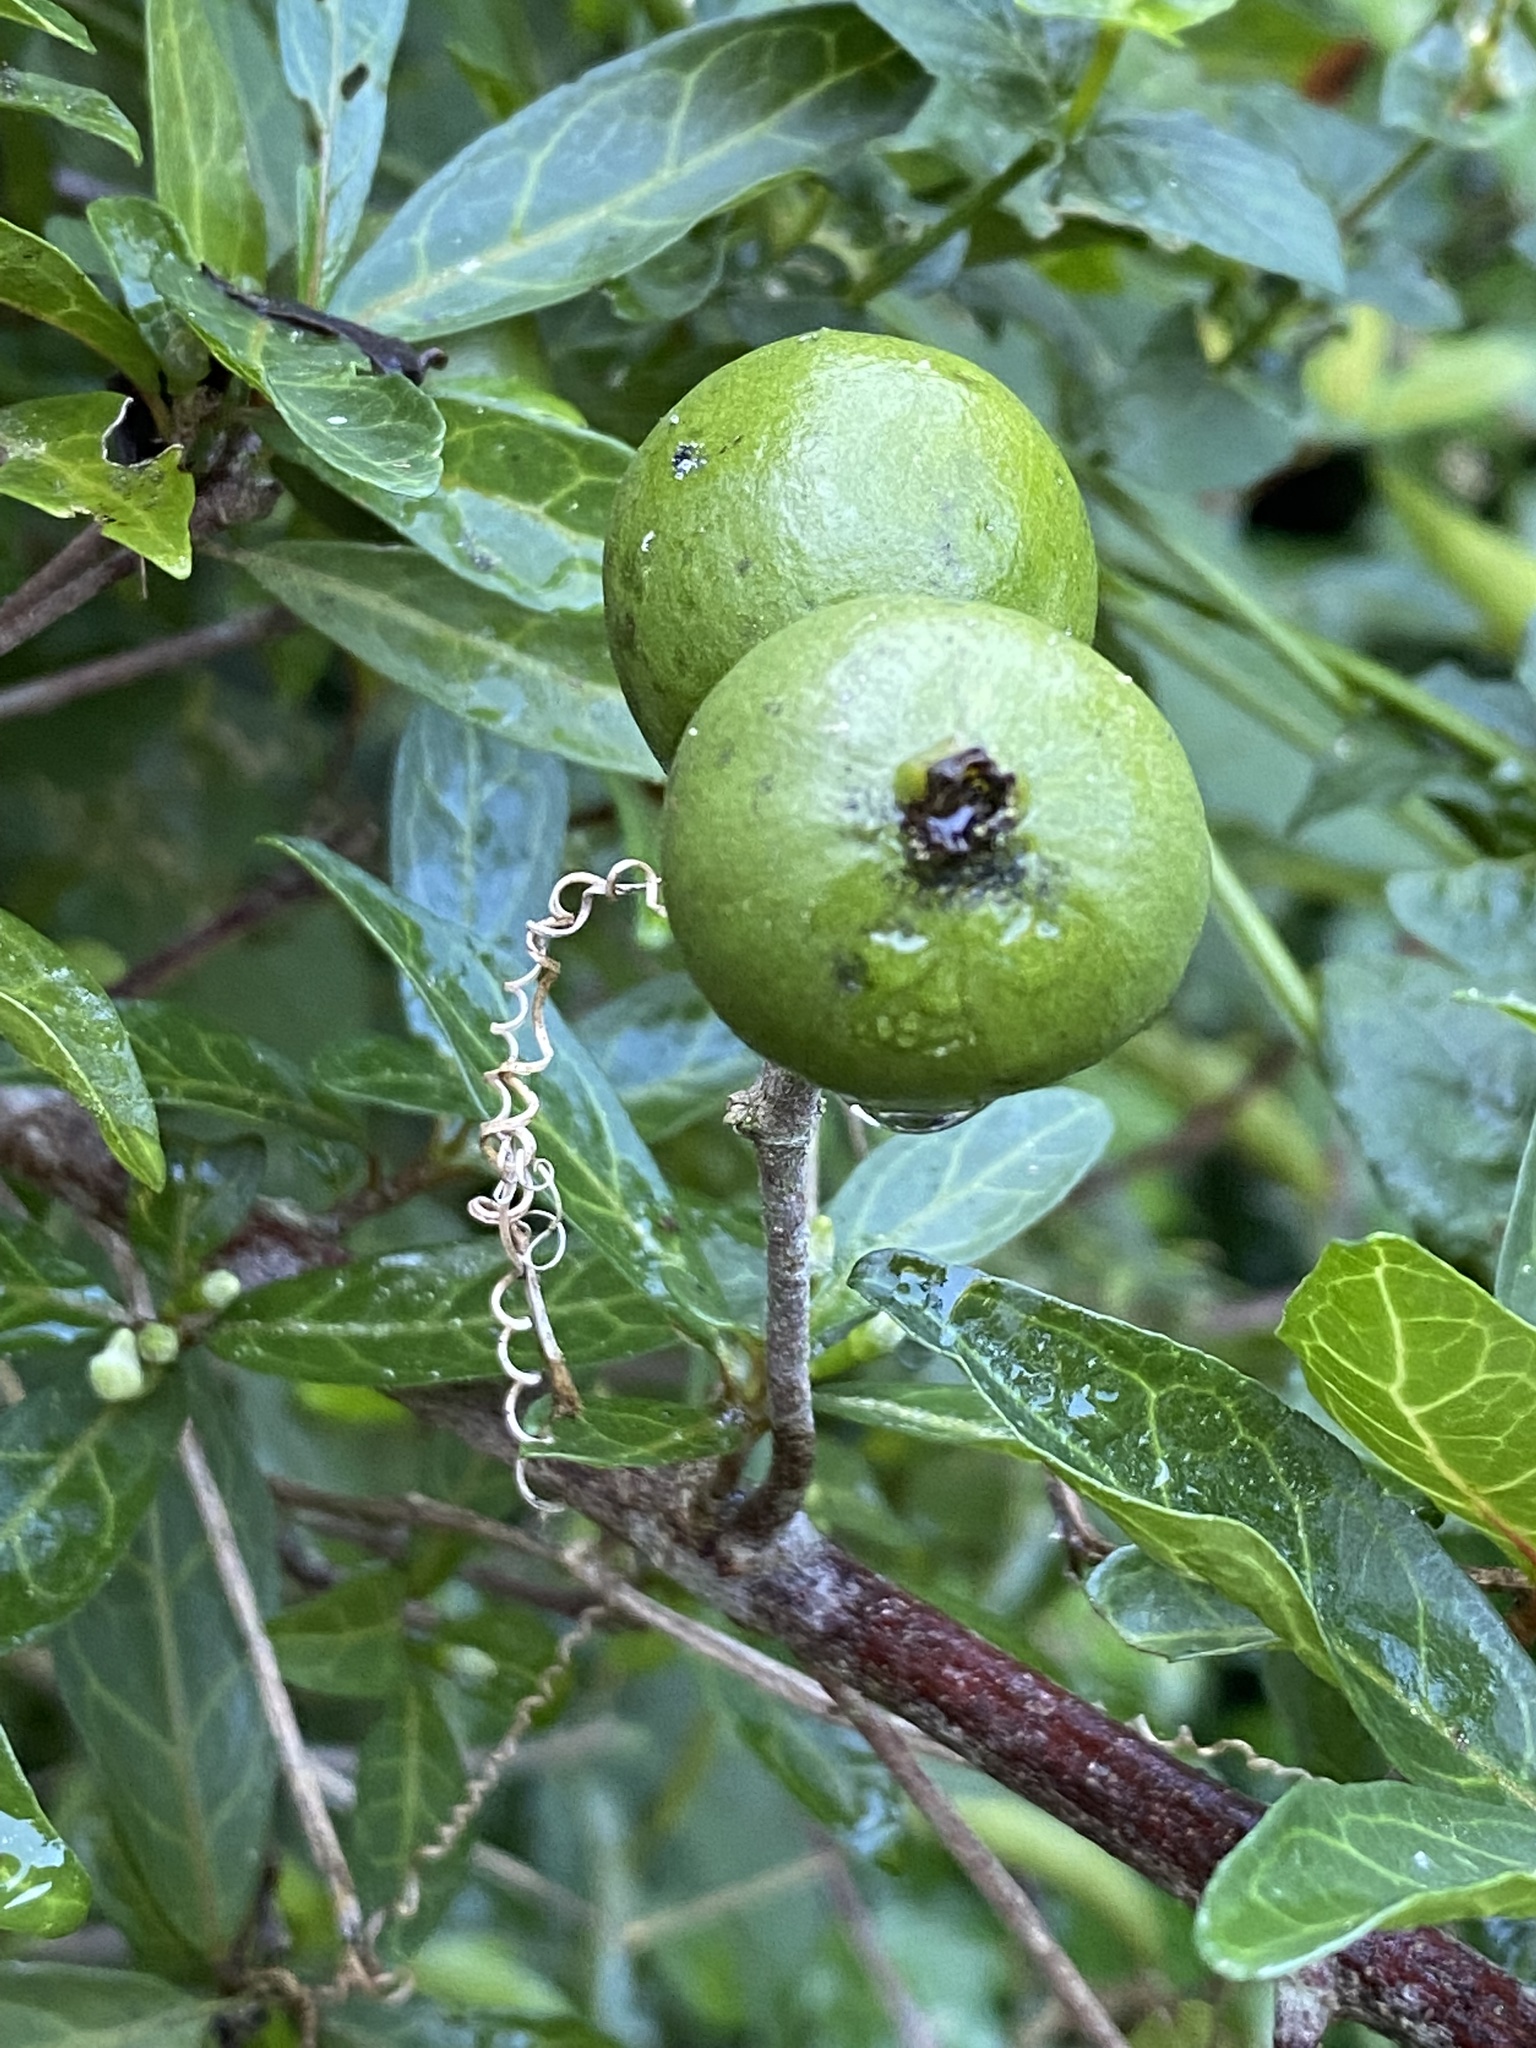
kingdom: Plantae
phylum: Tracheophyta
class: Magnoliopsida
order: Gentianales
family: Rubiaceae
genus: Rothmannia
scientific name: Rothmannia globosa
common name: September bells
